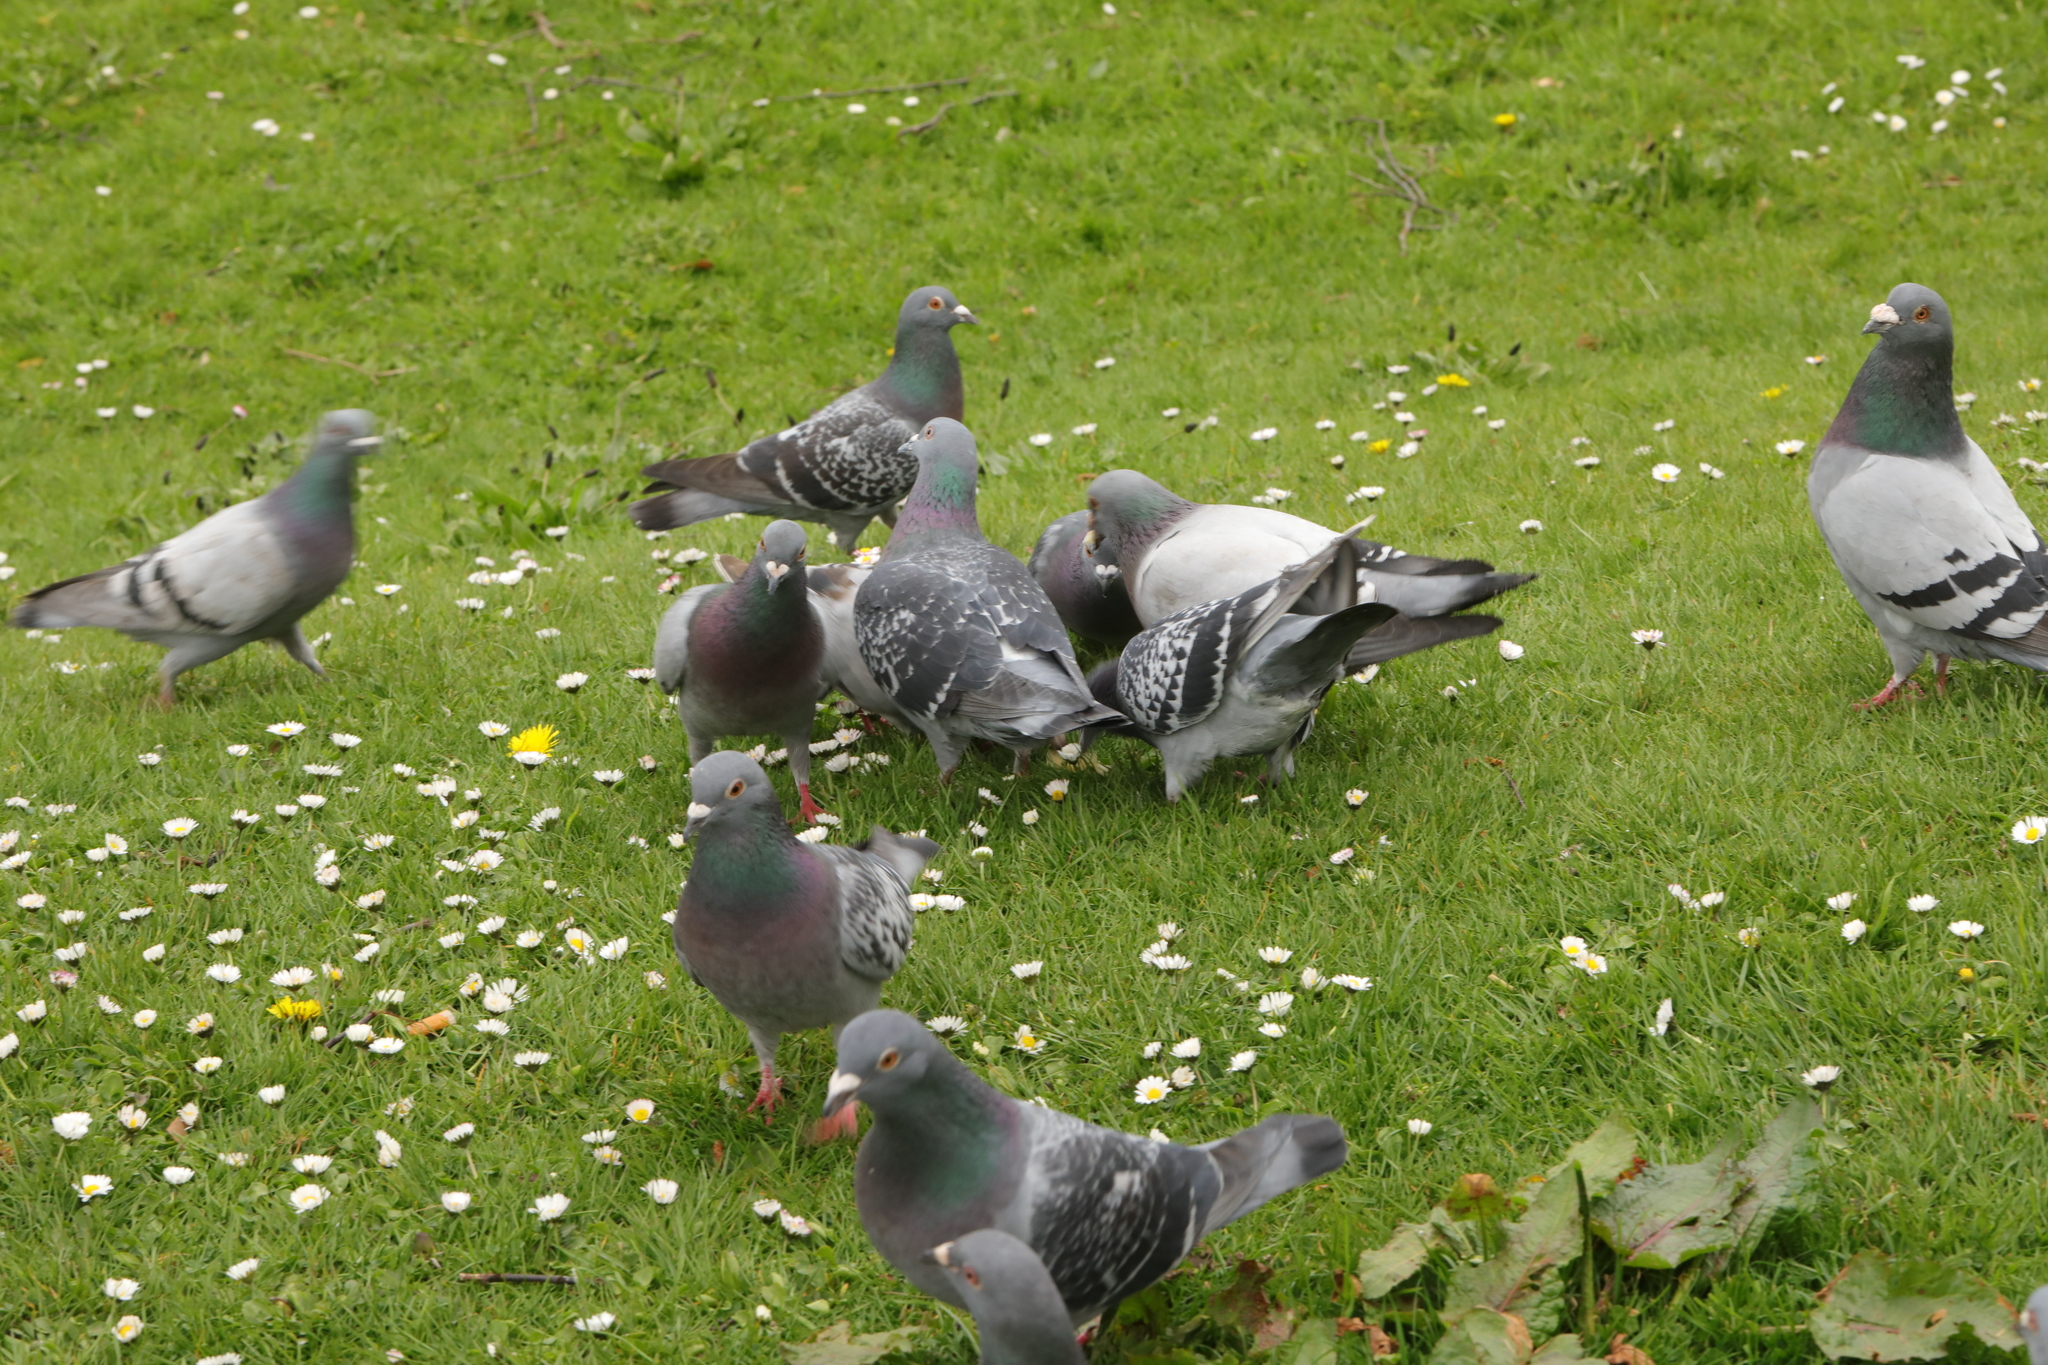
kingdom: Animalia
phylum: Chordata
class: Aves
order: Columbiformes
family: Columbidae
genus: Columba
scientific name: Columba livia
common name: Rock pigeon
